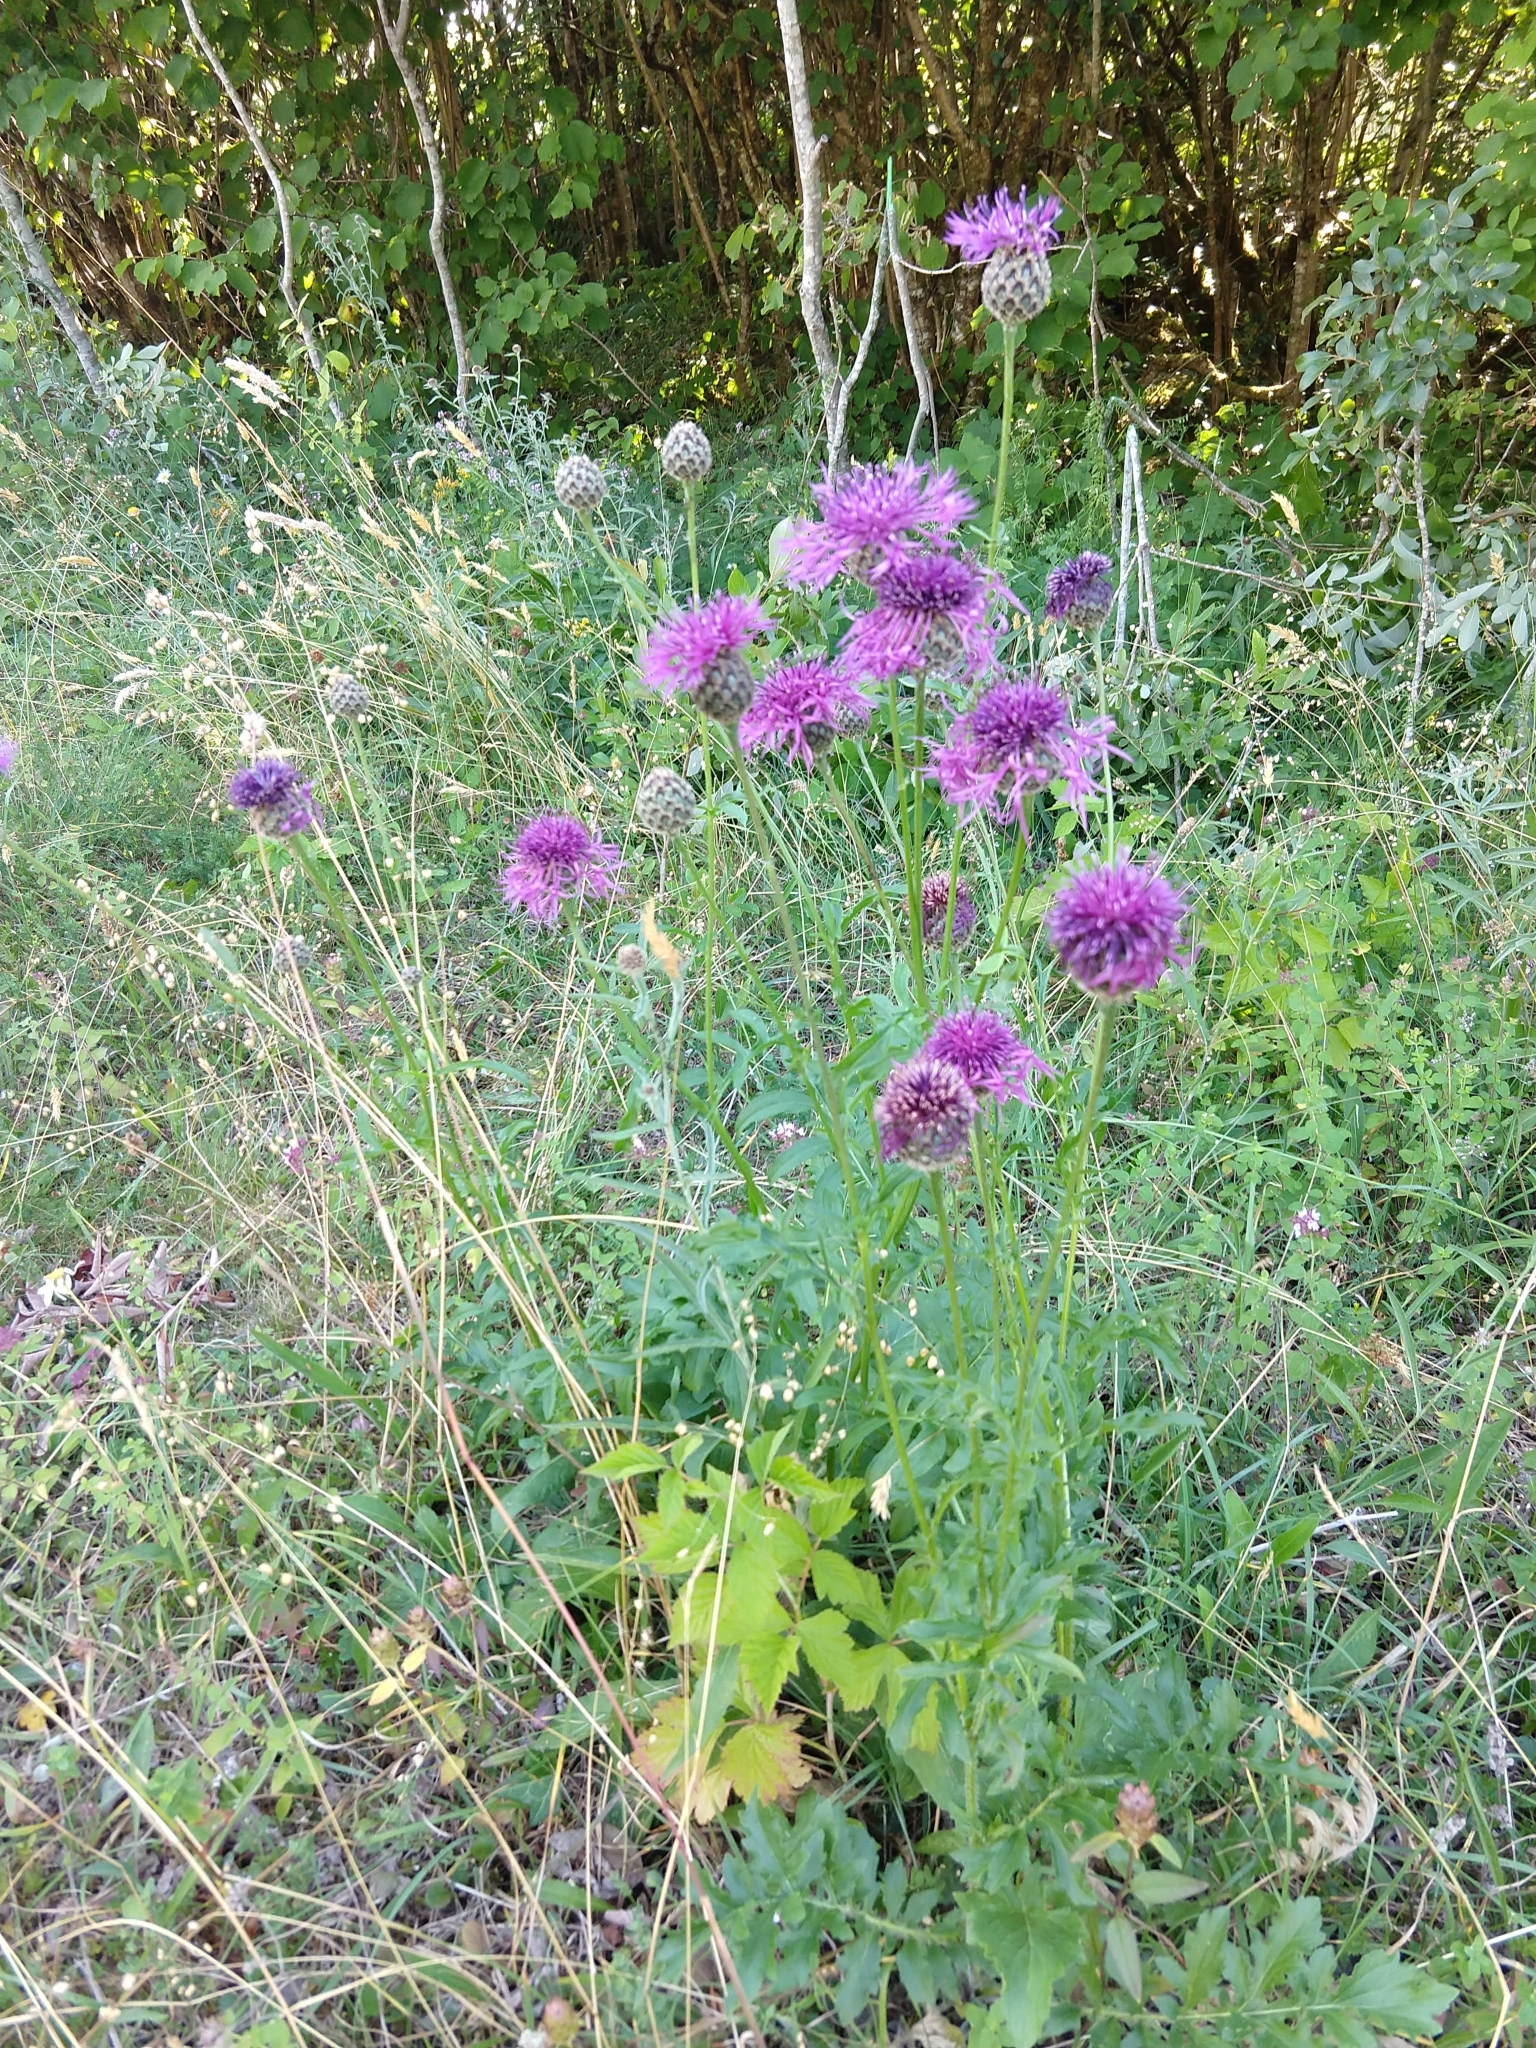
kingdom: Plantae
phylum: Tracheophyta
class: Magnoliopsida
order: Asterales
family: Asteraceae
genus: Centaurea
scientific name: Centaurea scabiosa
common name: Greater knapweed
